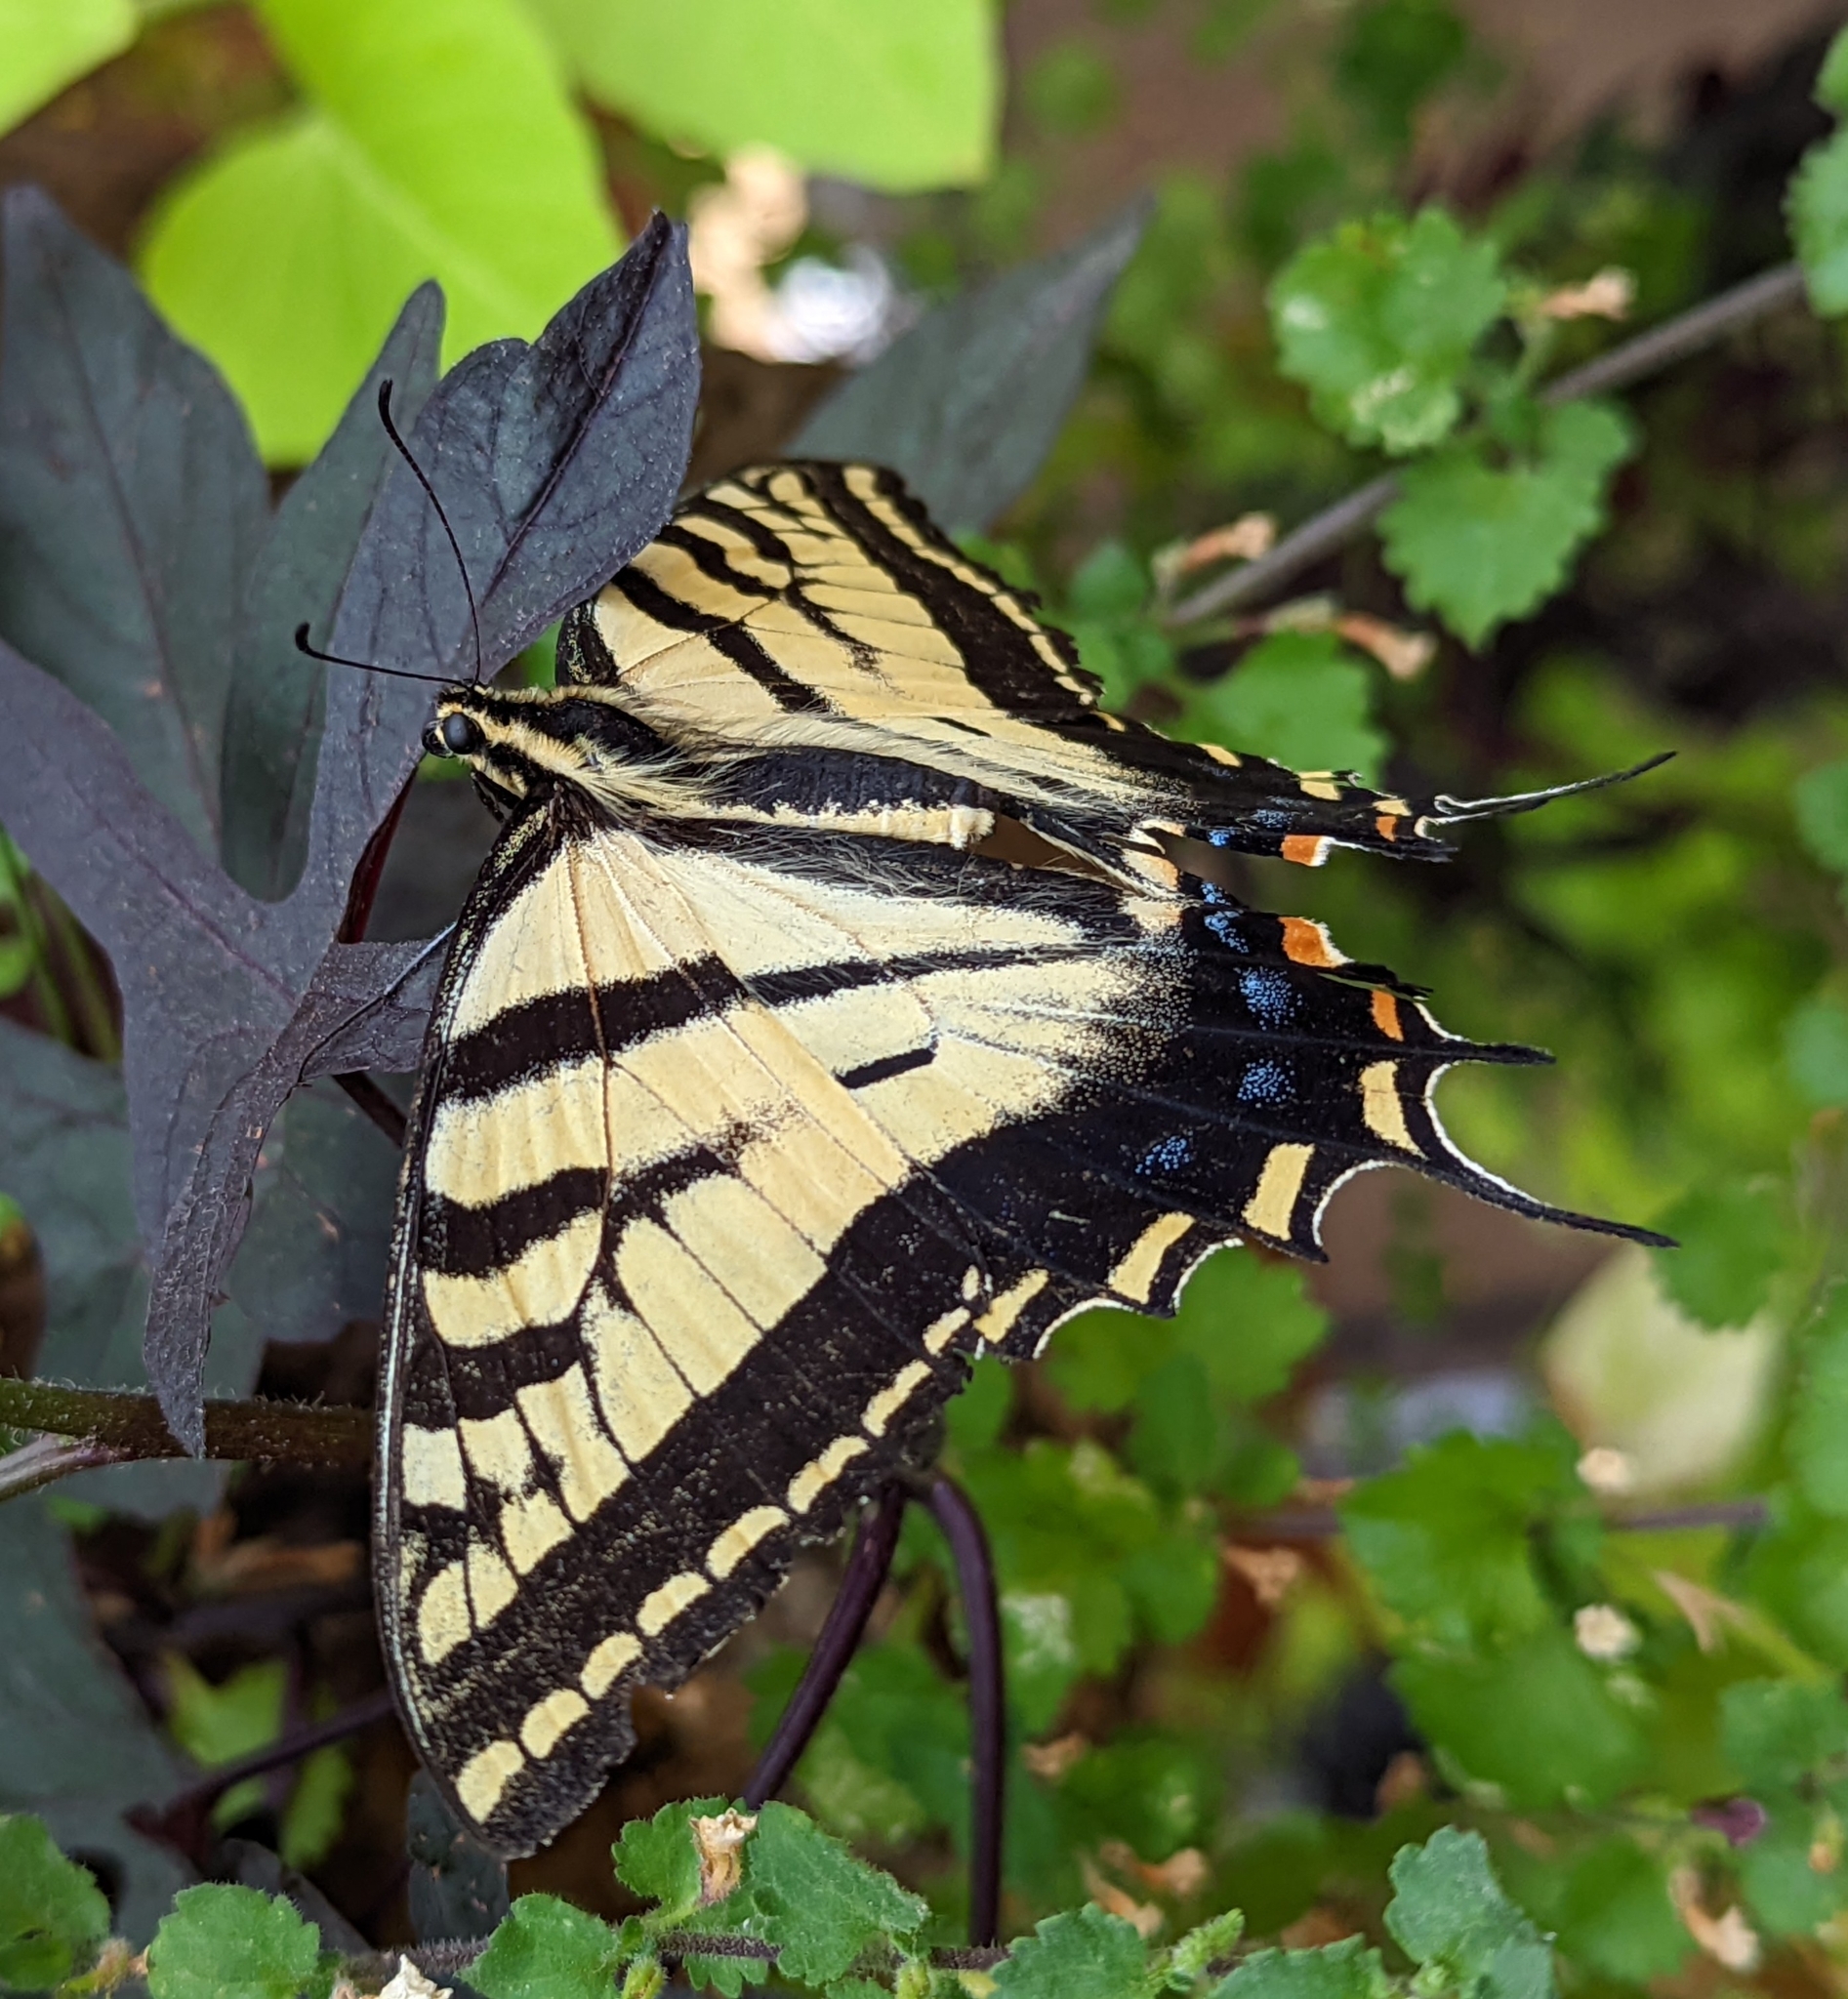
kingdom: Animalia
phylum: Arthropoda
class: Insecta
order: Lepidoptera
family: Papilionidae
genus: Papilio
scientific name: Papilio multicaudata
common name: Two-tailed tiger swallowtail
